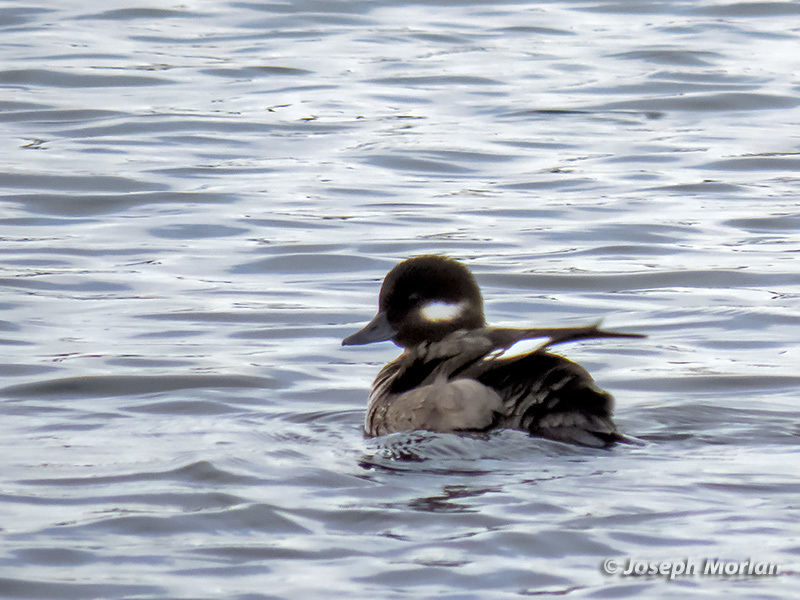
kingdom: Animalia
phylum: Chordata
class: Aves
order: Anseriformes
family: Anatidae
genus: Bucephala
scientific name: Bucephala albeola
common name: Bufflehead
